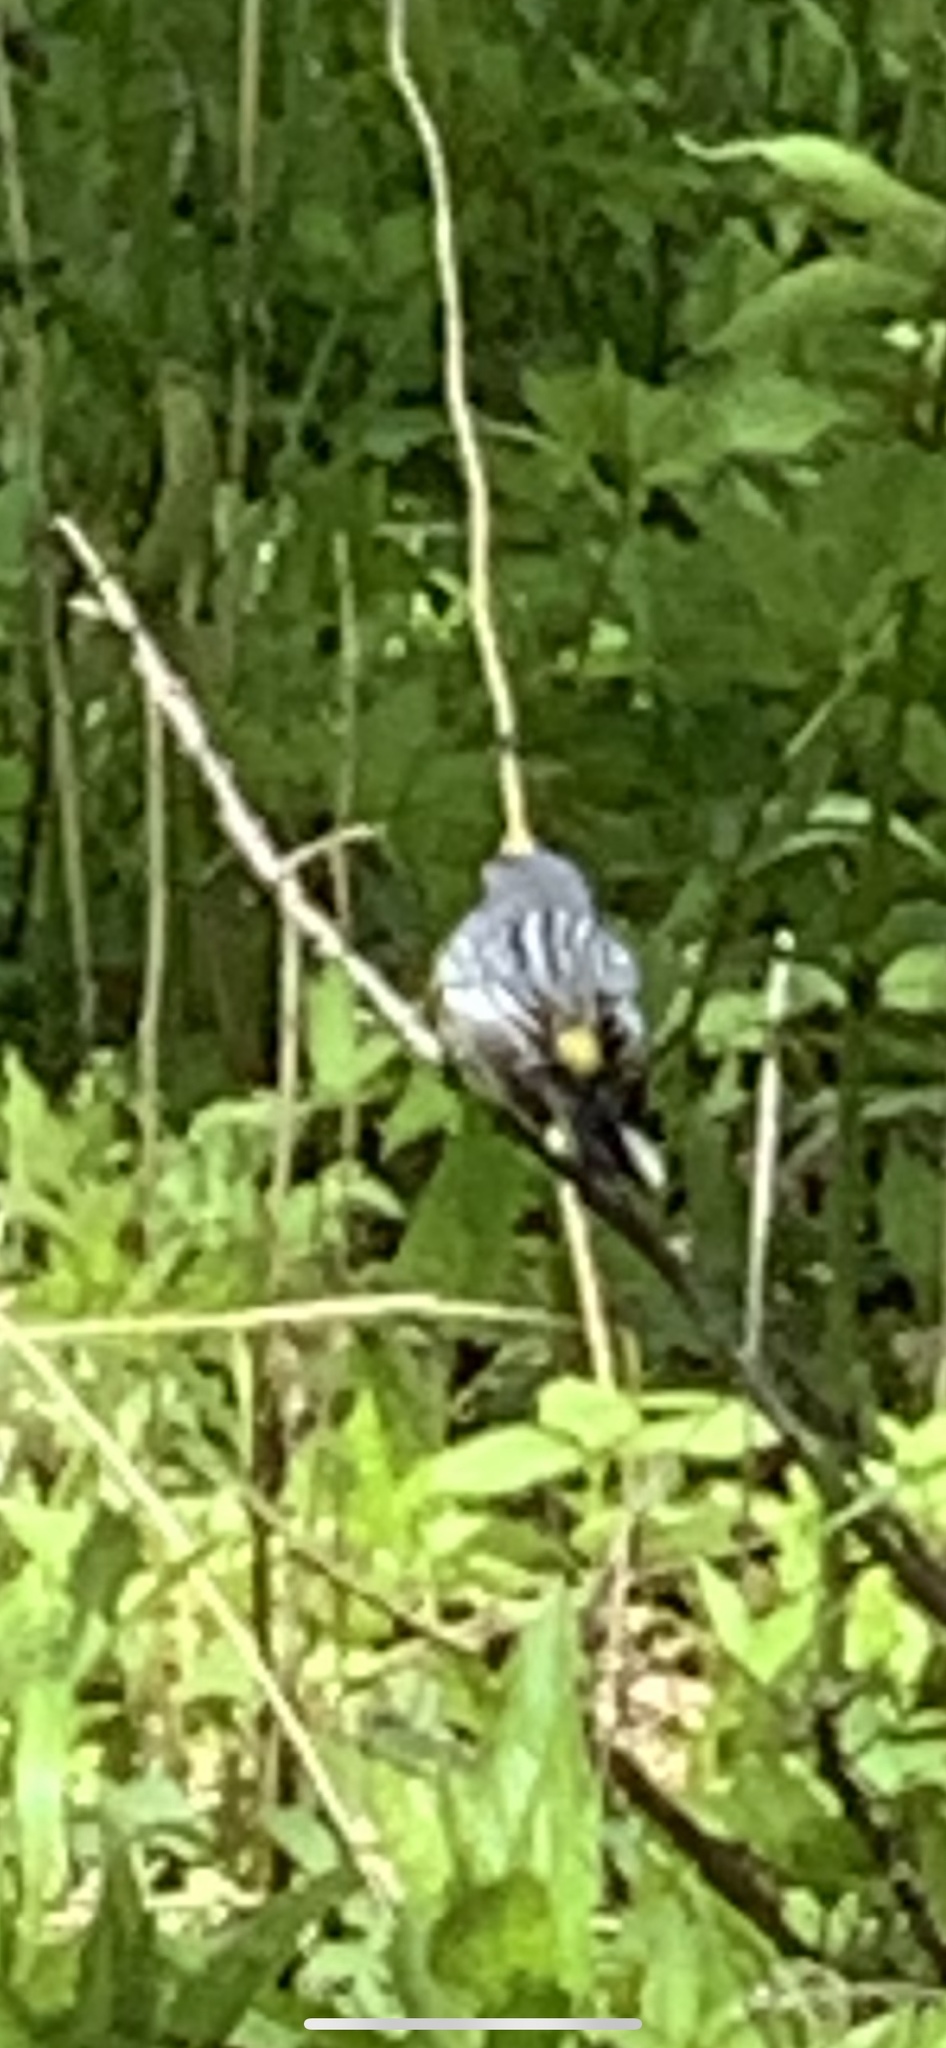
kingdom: Animalia
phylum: Chordata
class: Aves
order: Passeriformes
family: Parulidae
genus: Setophaga
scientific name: Setophaga coronata
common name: Myrtle warbler
